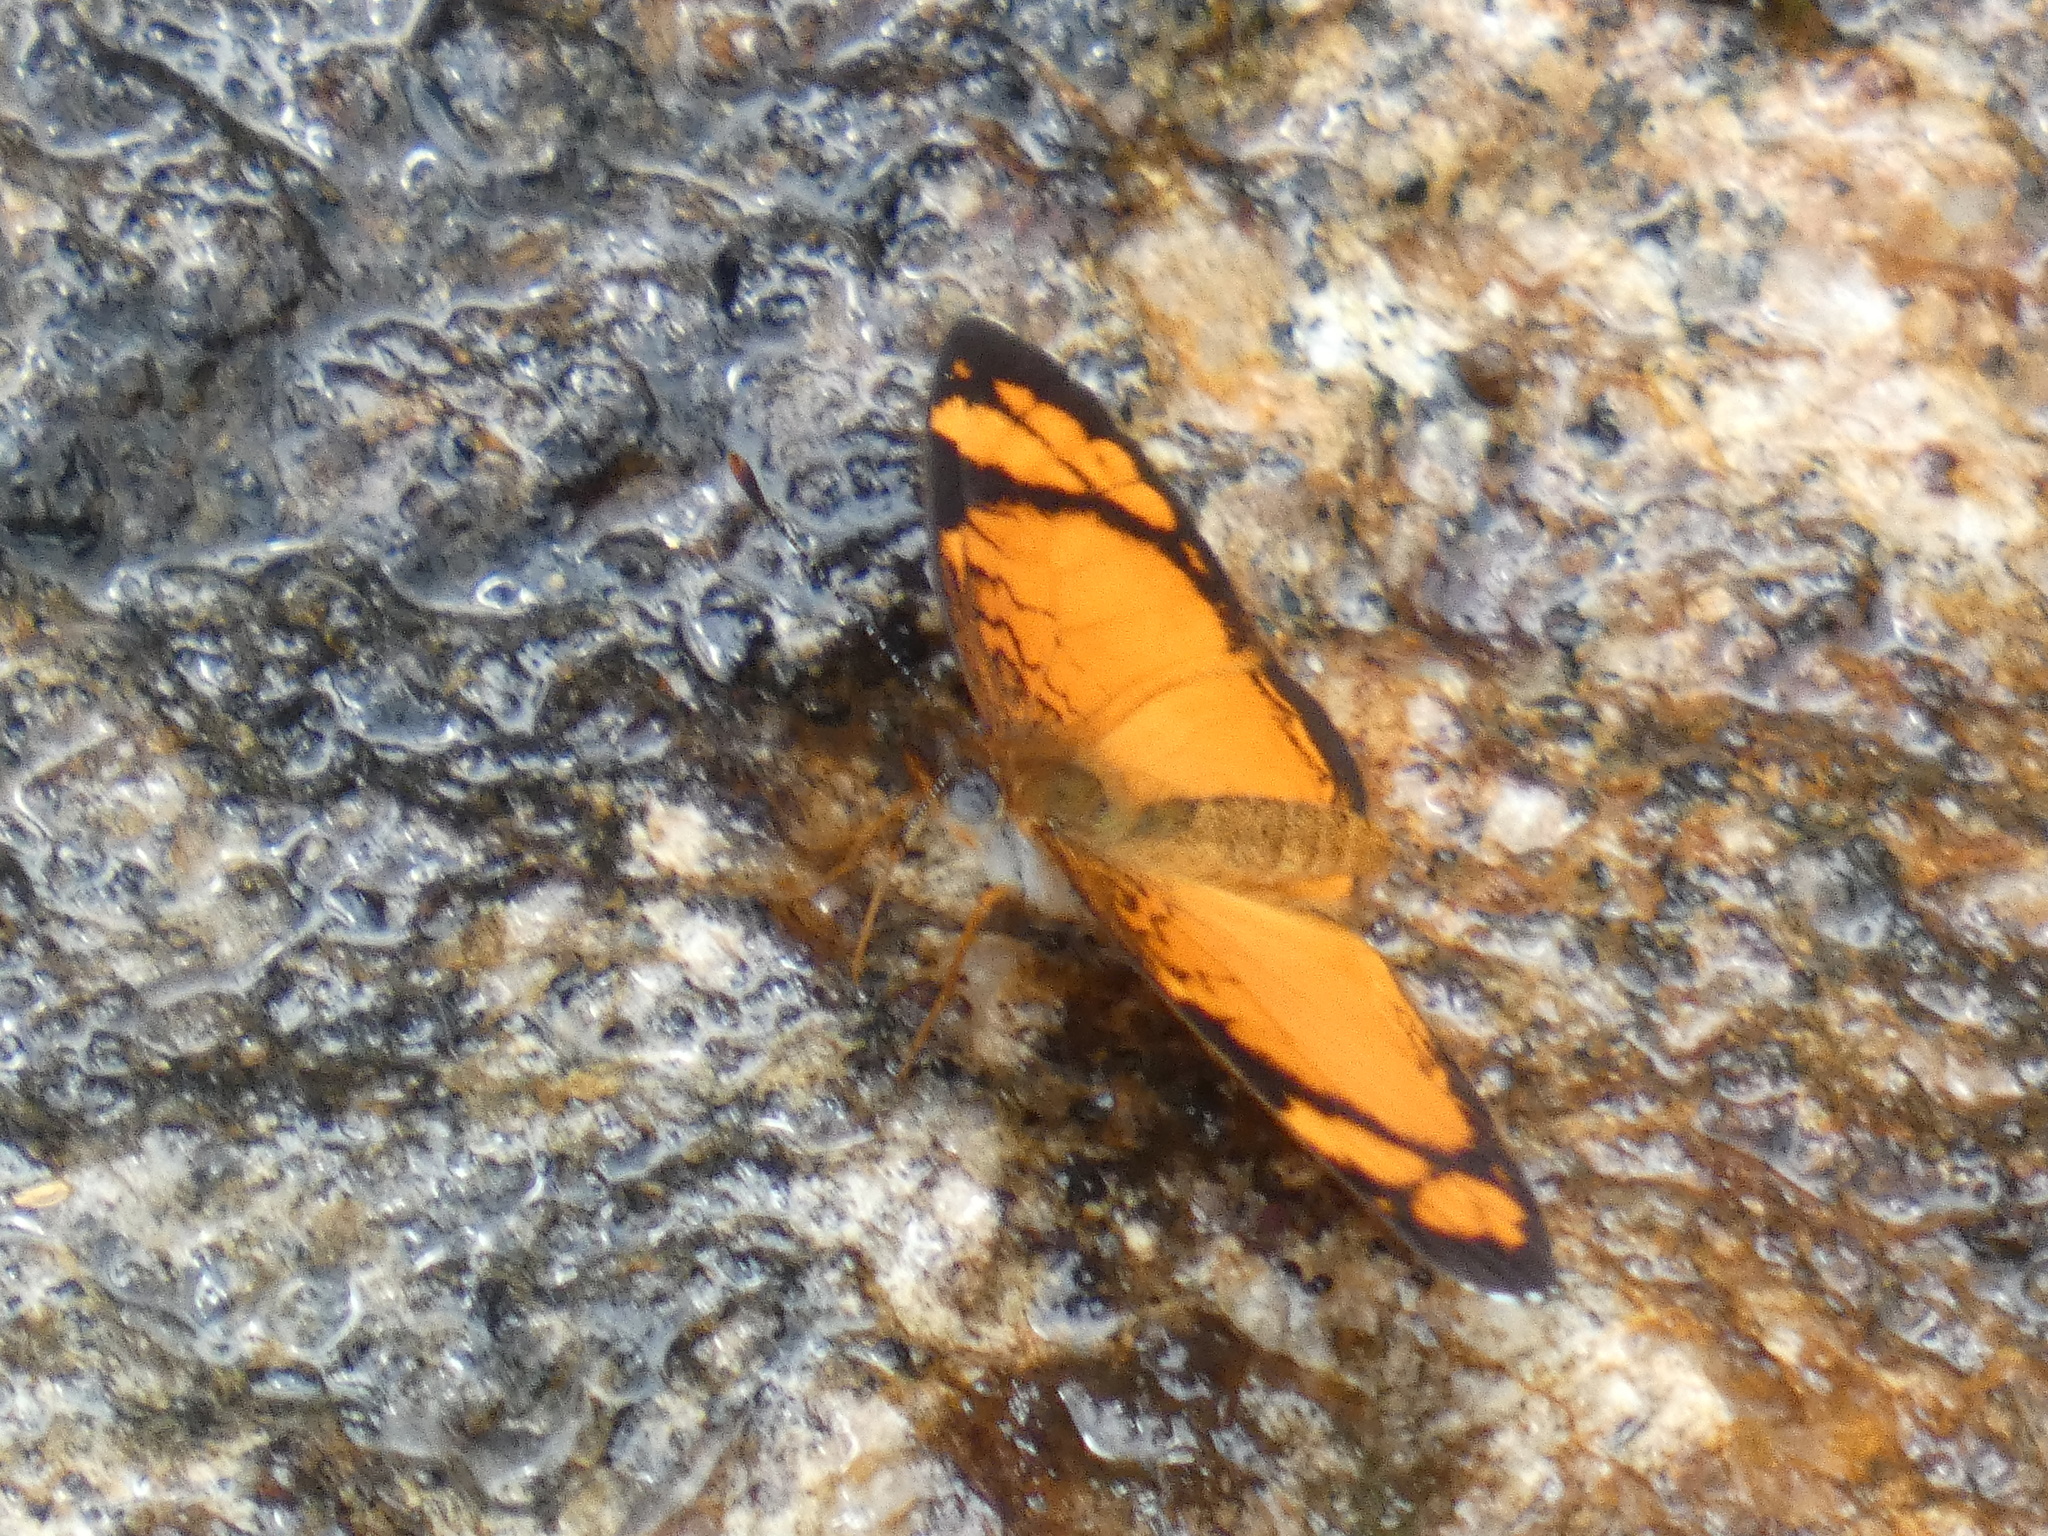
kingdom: Animalia
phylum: Arthropoda
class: Insecta
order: Lepidoptera
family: Nymphalidae
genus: Tegosa
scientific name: Tegosa claudina
